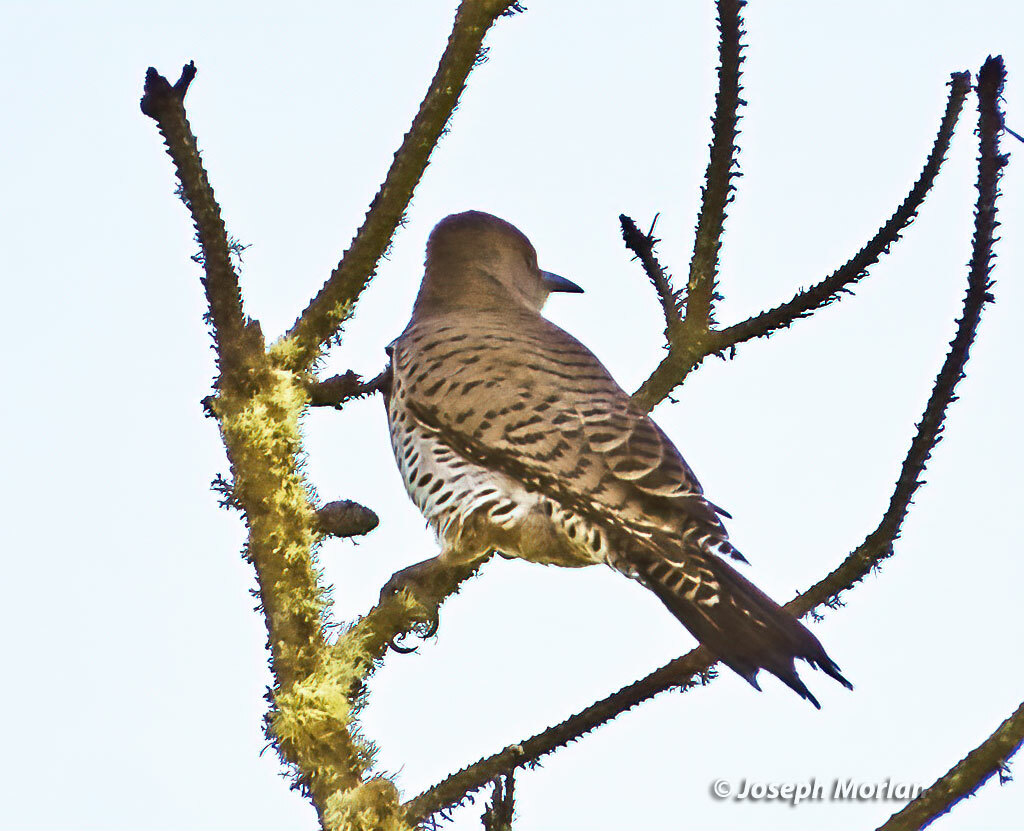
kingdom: Animalia
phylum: Chordata
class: Aves
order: Piciformes
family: Picidae
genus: Colaptes
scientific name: Colaptes auratus
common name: Northern flicker
